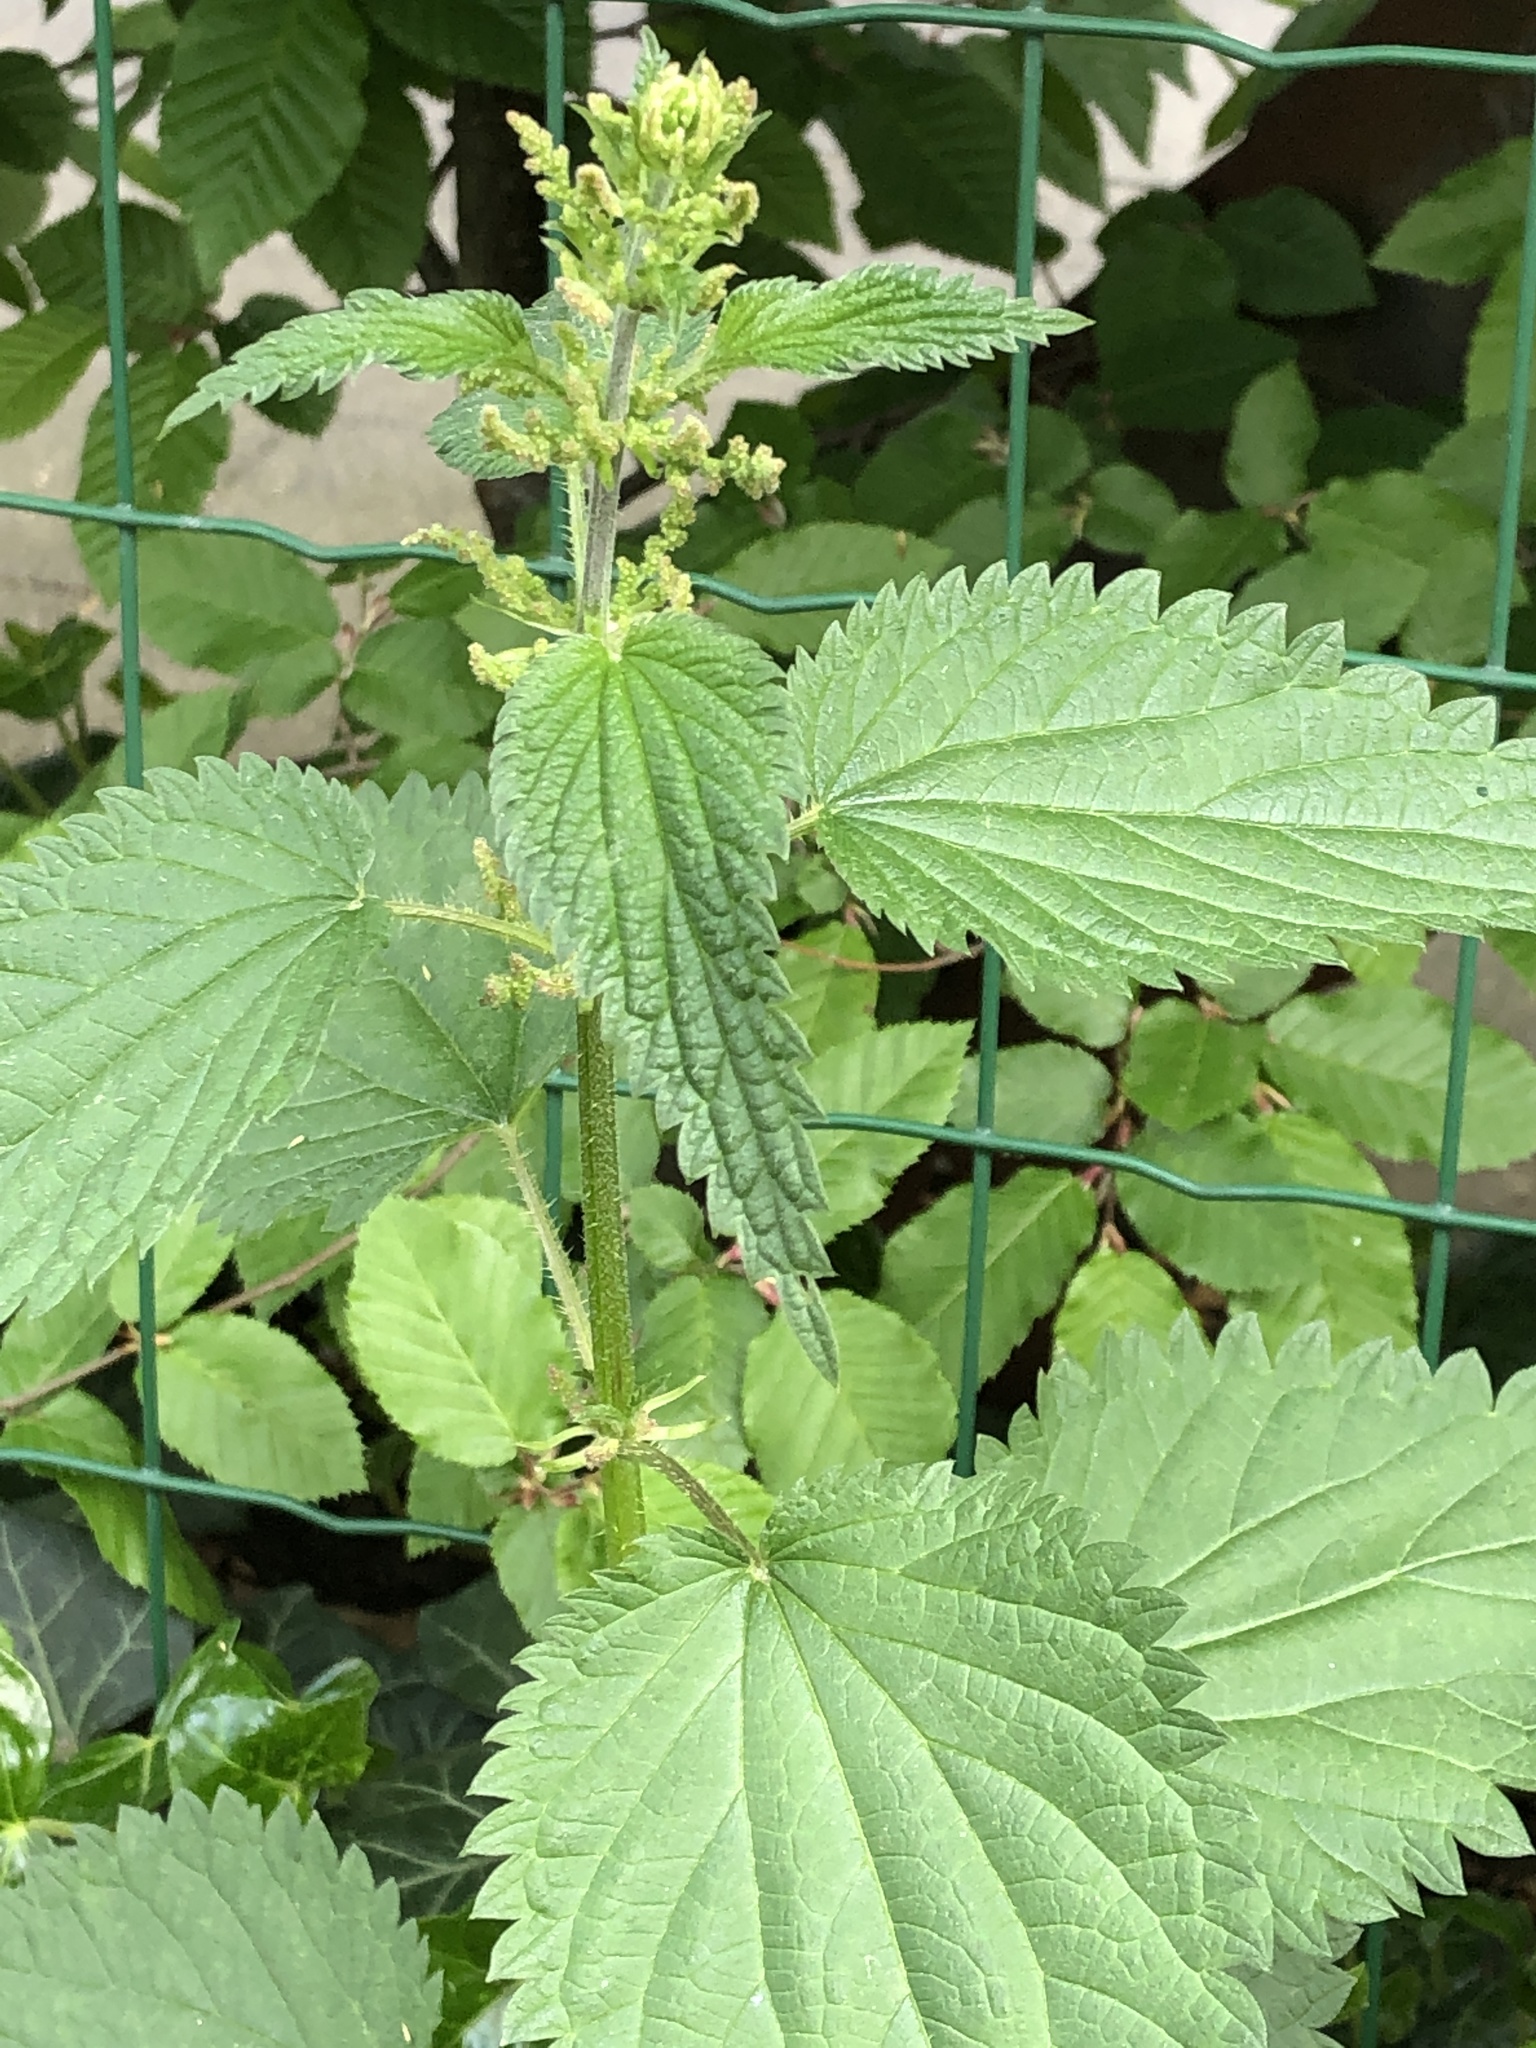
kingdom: Plantae
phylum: Tracheophyta
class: Magnoliopsida
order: Rosales
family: Urticaceae
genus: Urtica
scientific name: Urtica dioica
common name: Common nettle
